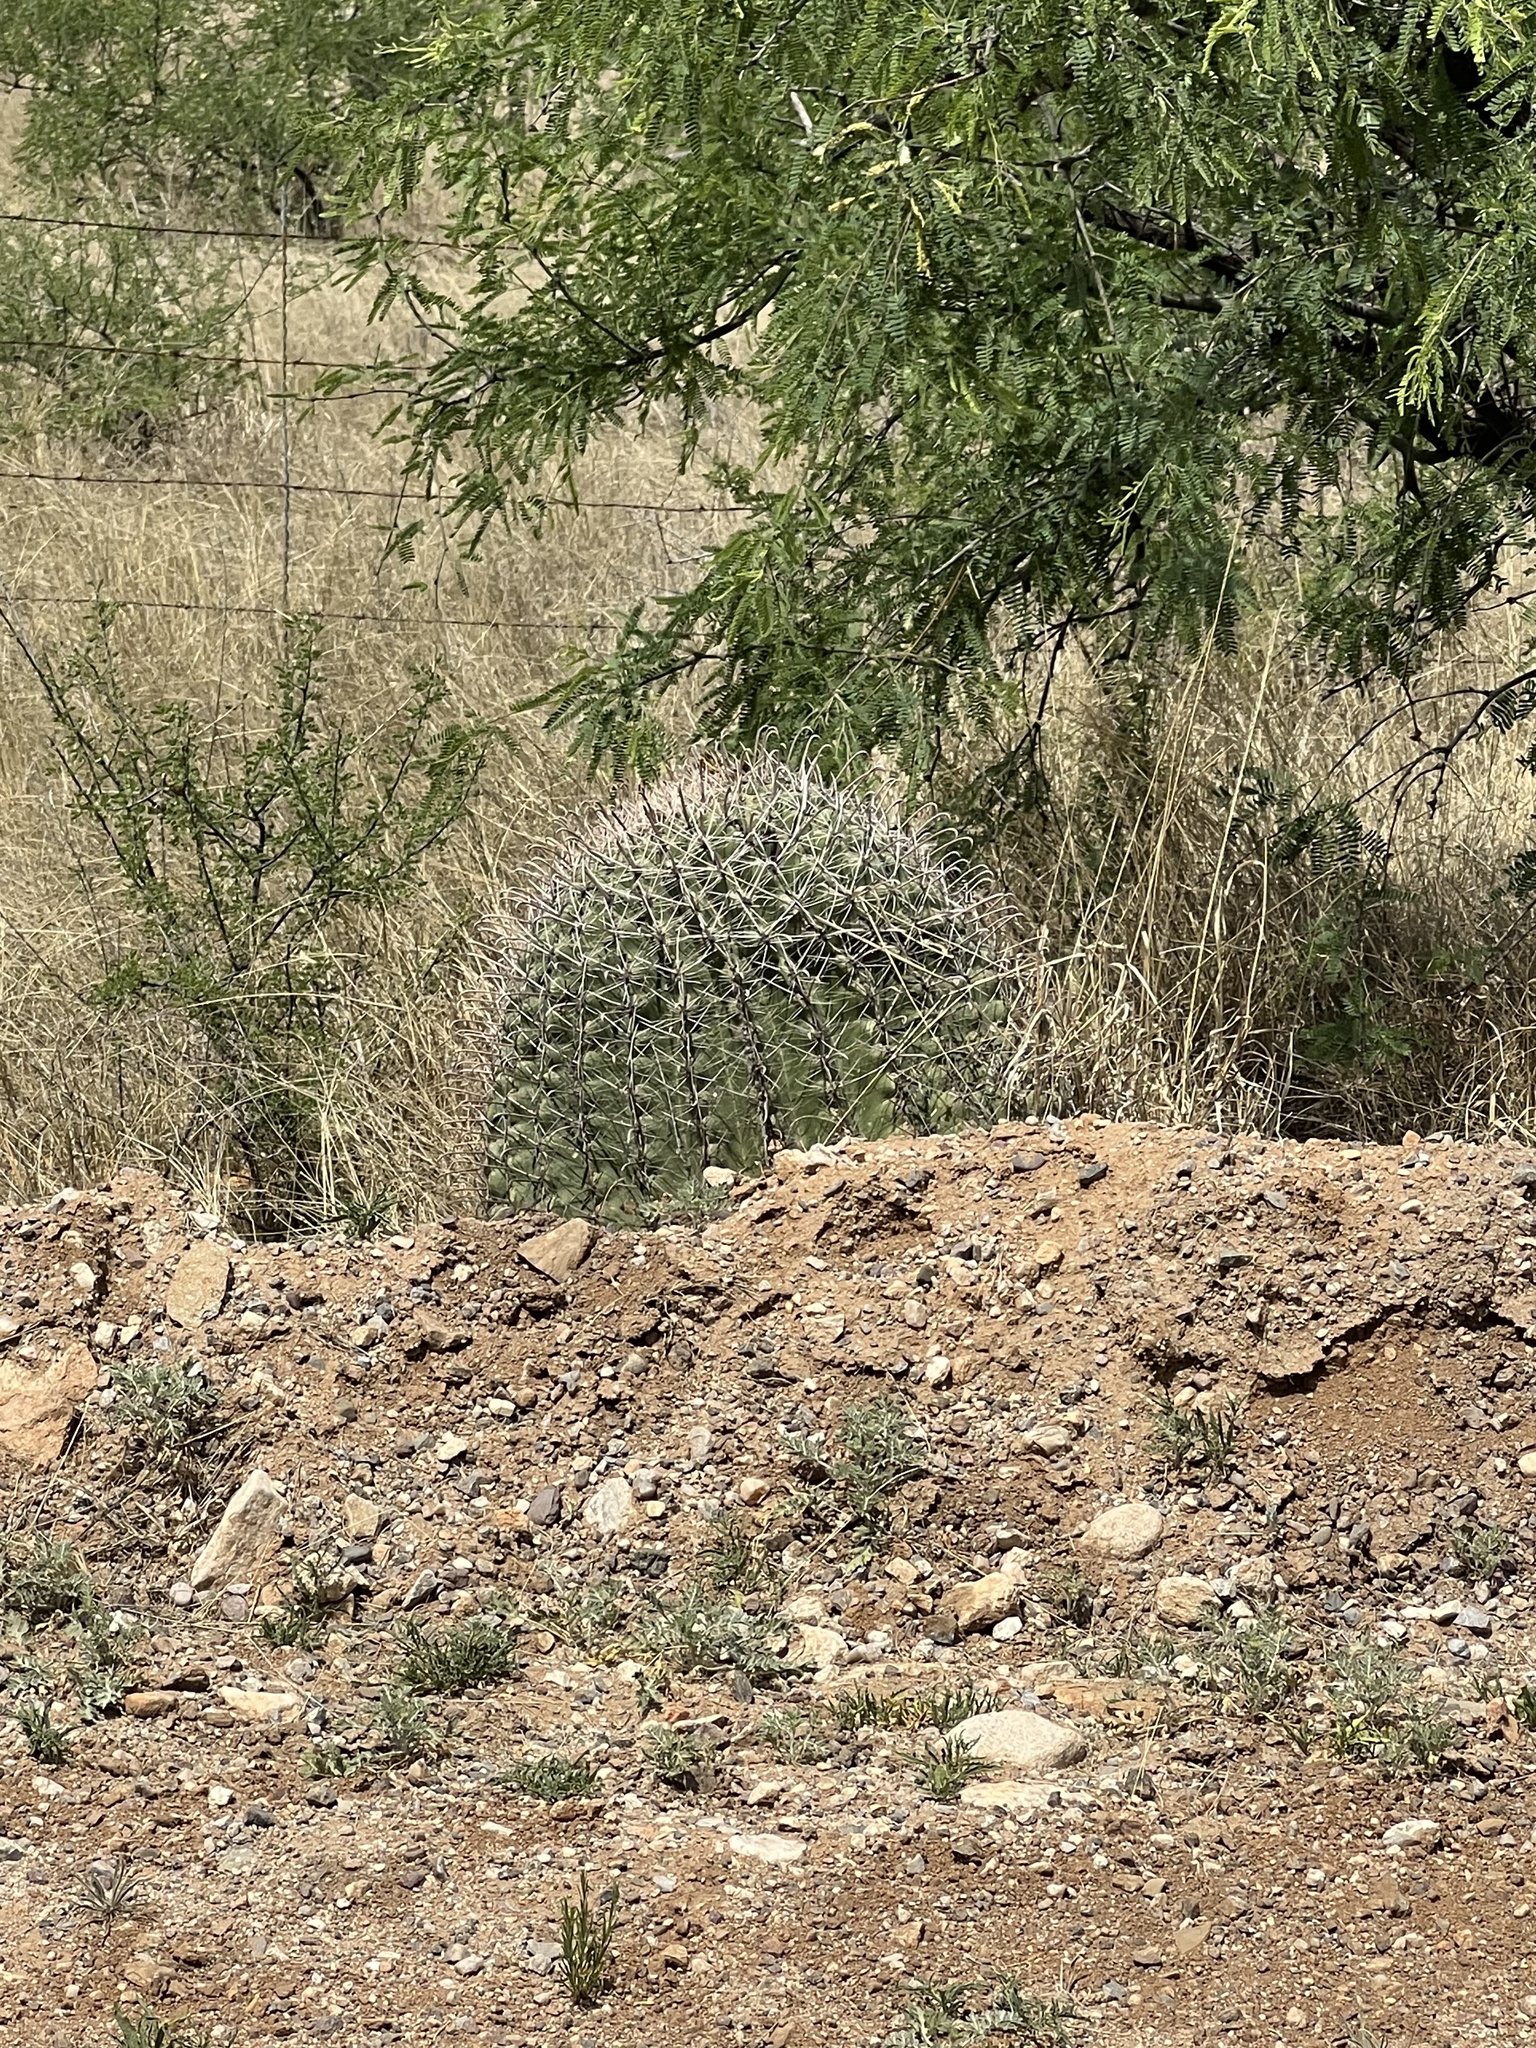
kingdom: Plantae
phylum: Tracheophyta
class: Magnoliopsida
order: Caryophyllales
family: Cactaceae
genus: Ferocactus
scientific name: Ferocactus wislizeni
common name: Candy barrel cactus
